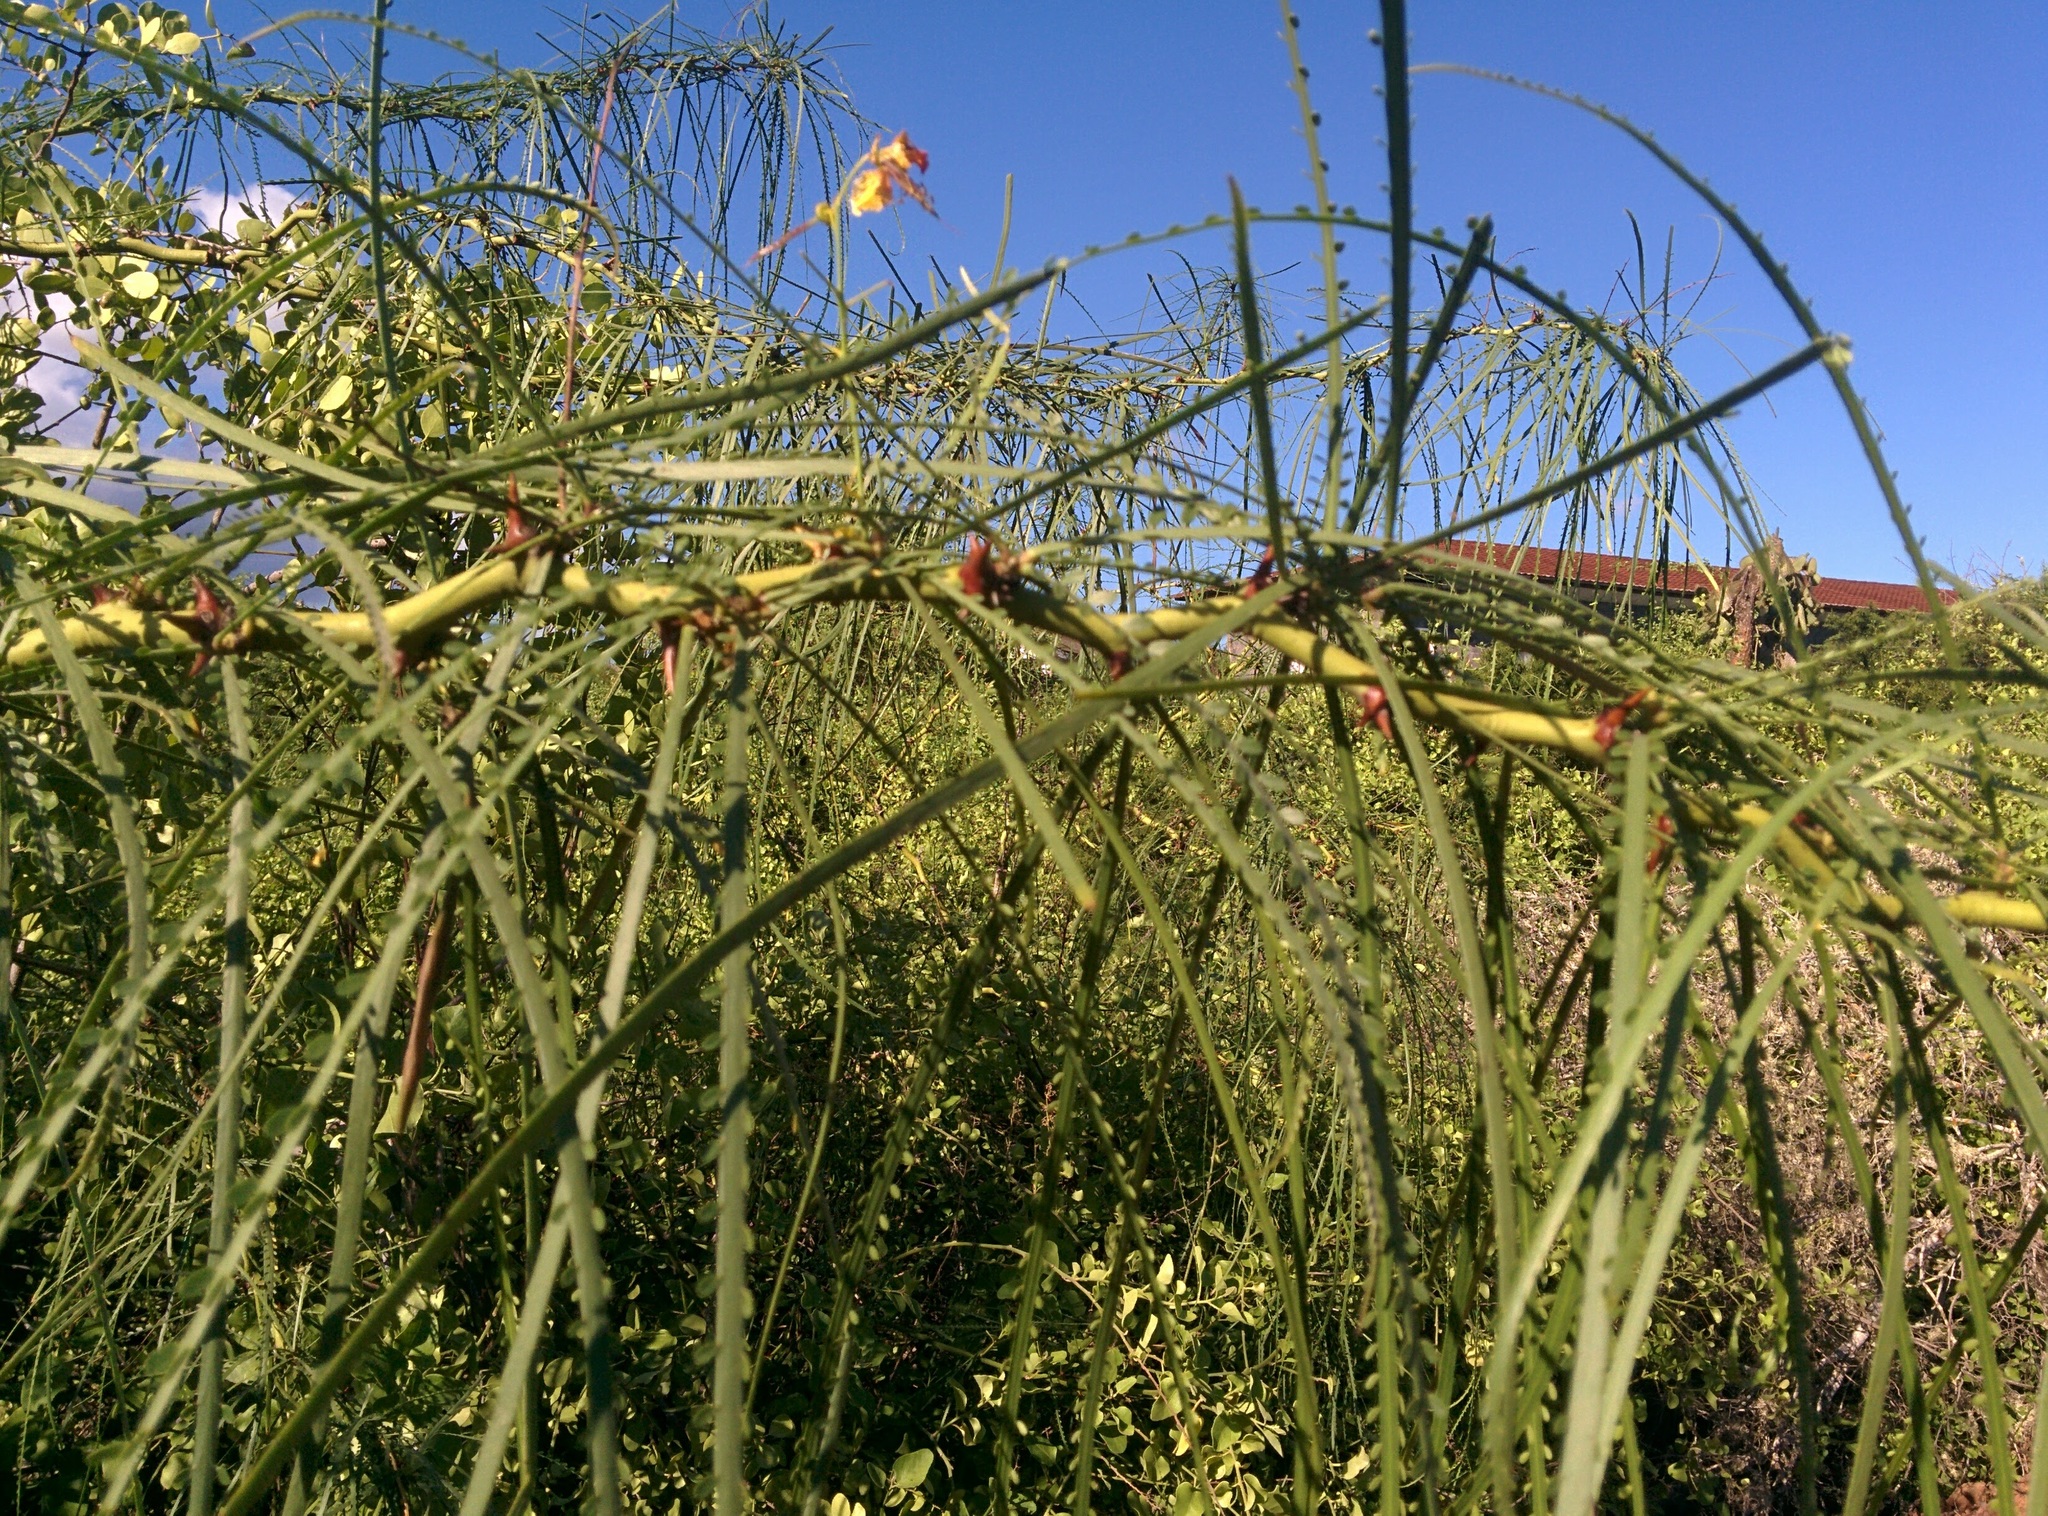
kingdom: Plantae
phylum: Tracheophyta
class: Magnoliopsida
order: Fabales
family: Fabaceae
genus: Parkinsonia
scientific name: Parkinsonia aculeata
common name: Jerusalem thorn
